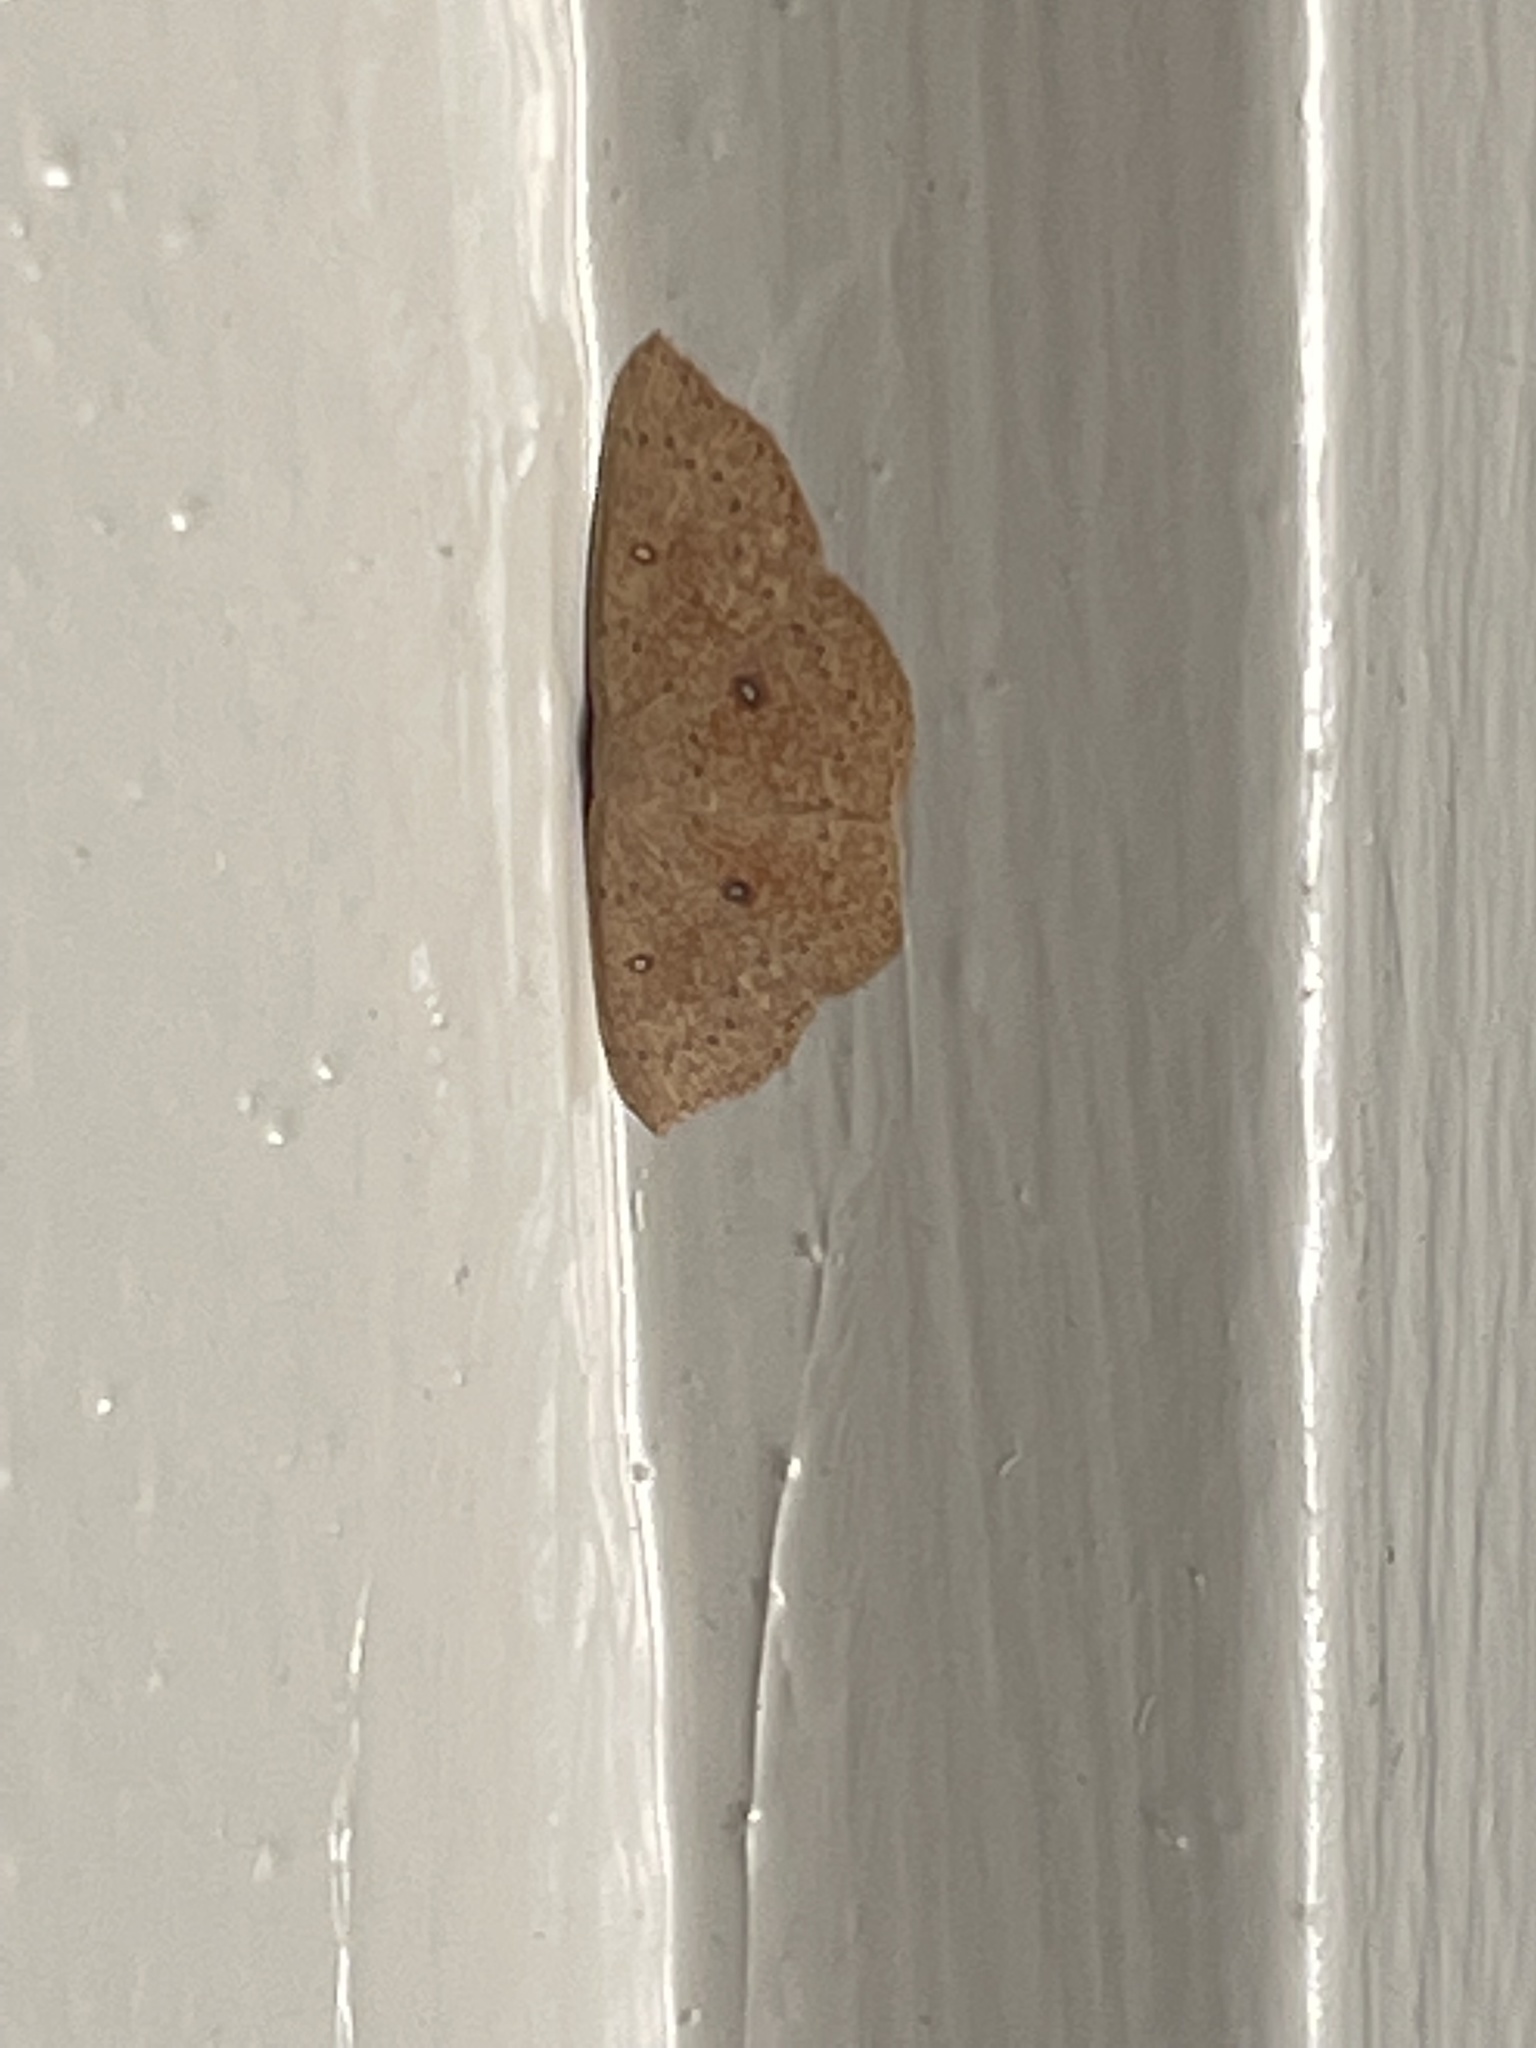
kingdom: Animalia
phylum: Arthropoda
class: Insecta
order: Lepidoptera
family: Geometridae
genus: Cyclophora
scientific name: Cyclophora packardi
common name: Packard's wave
